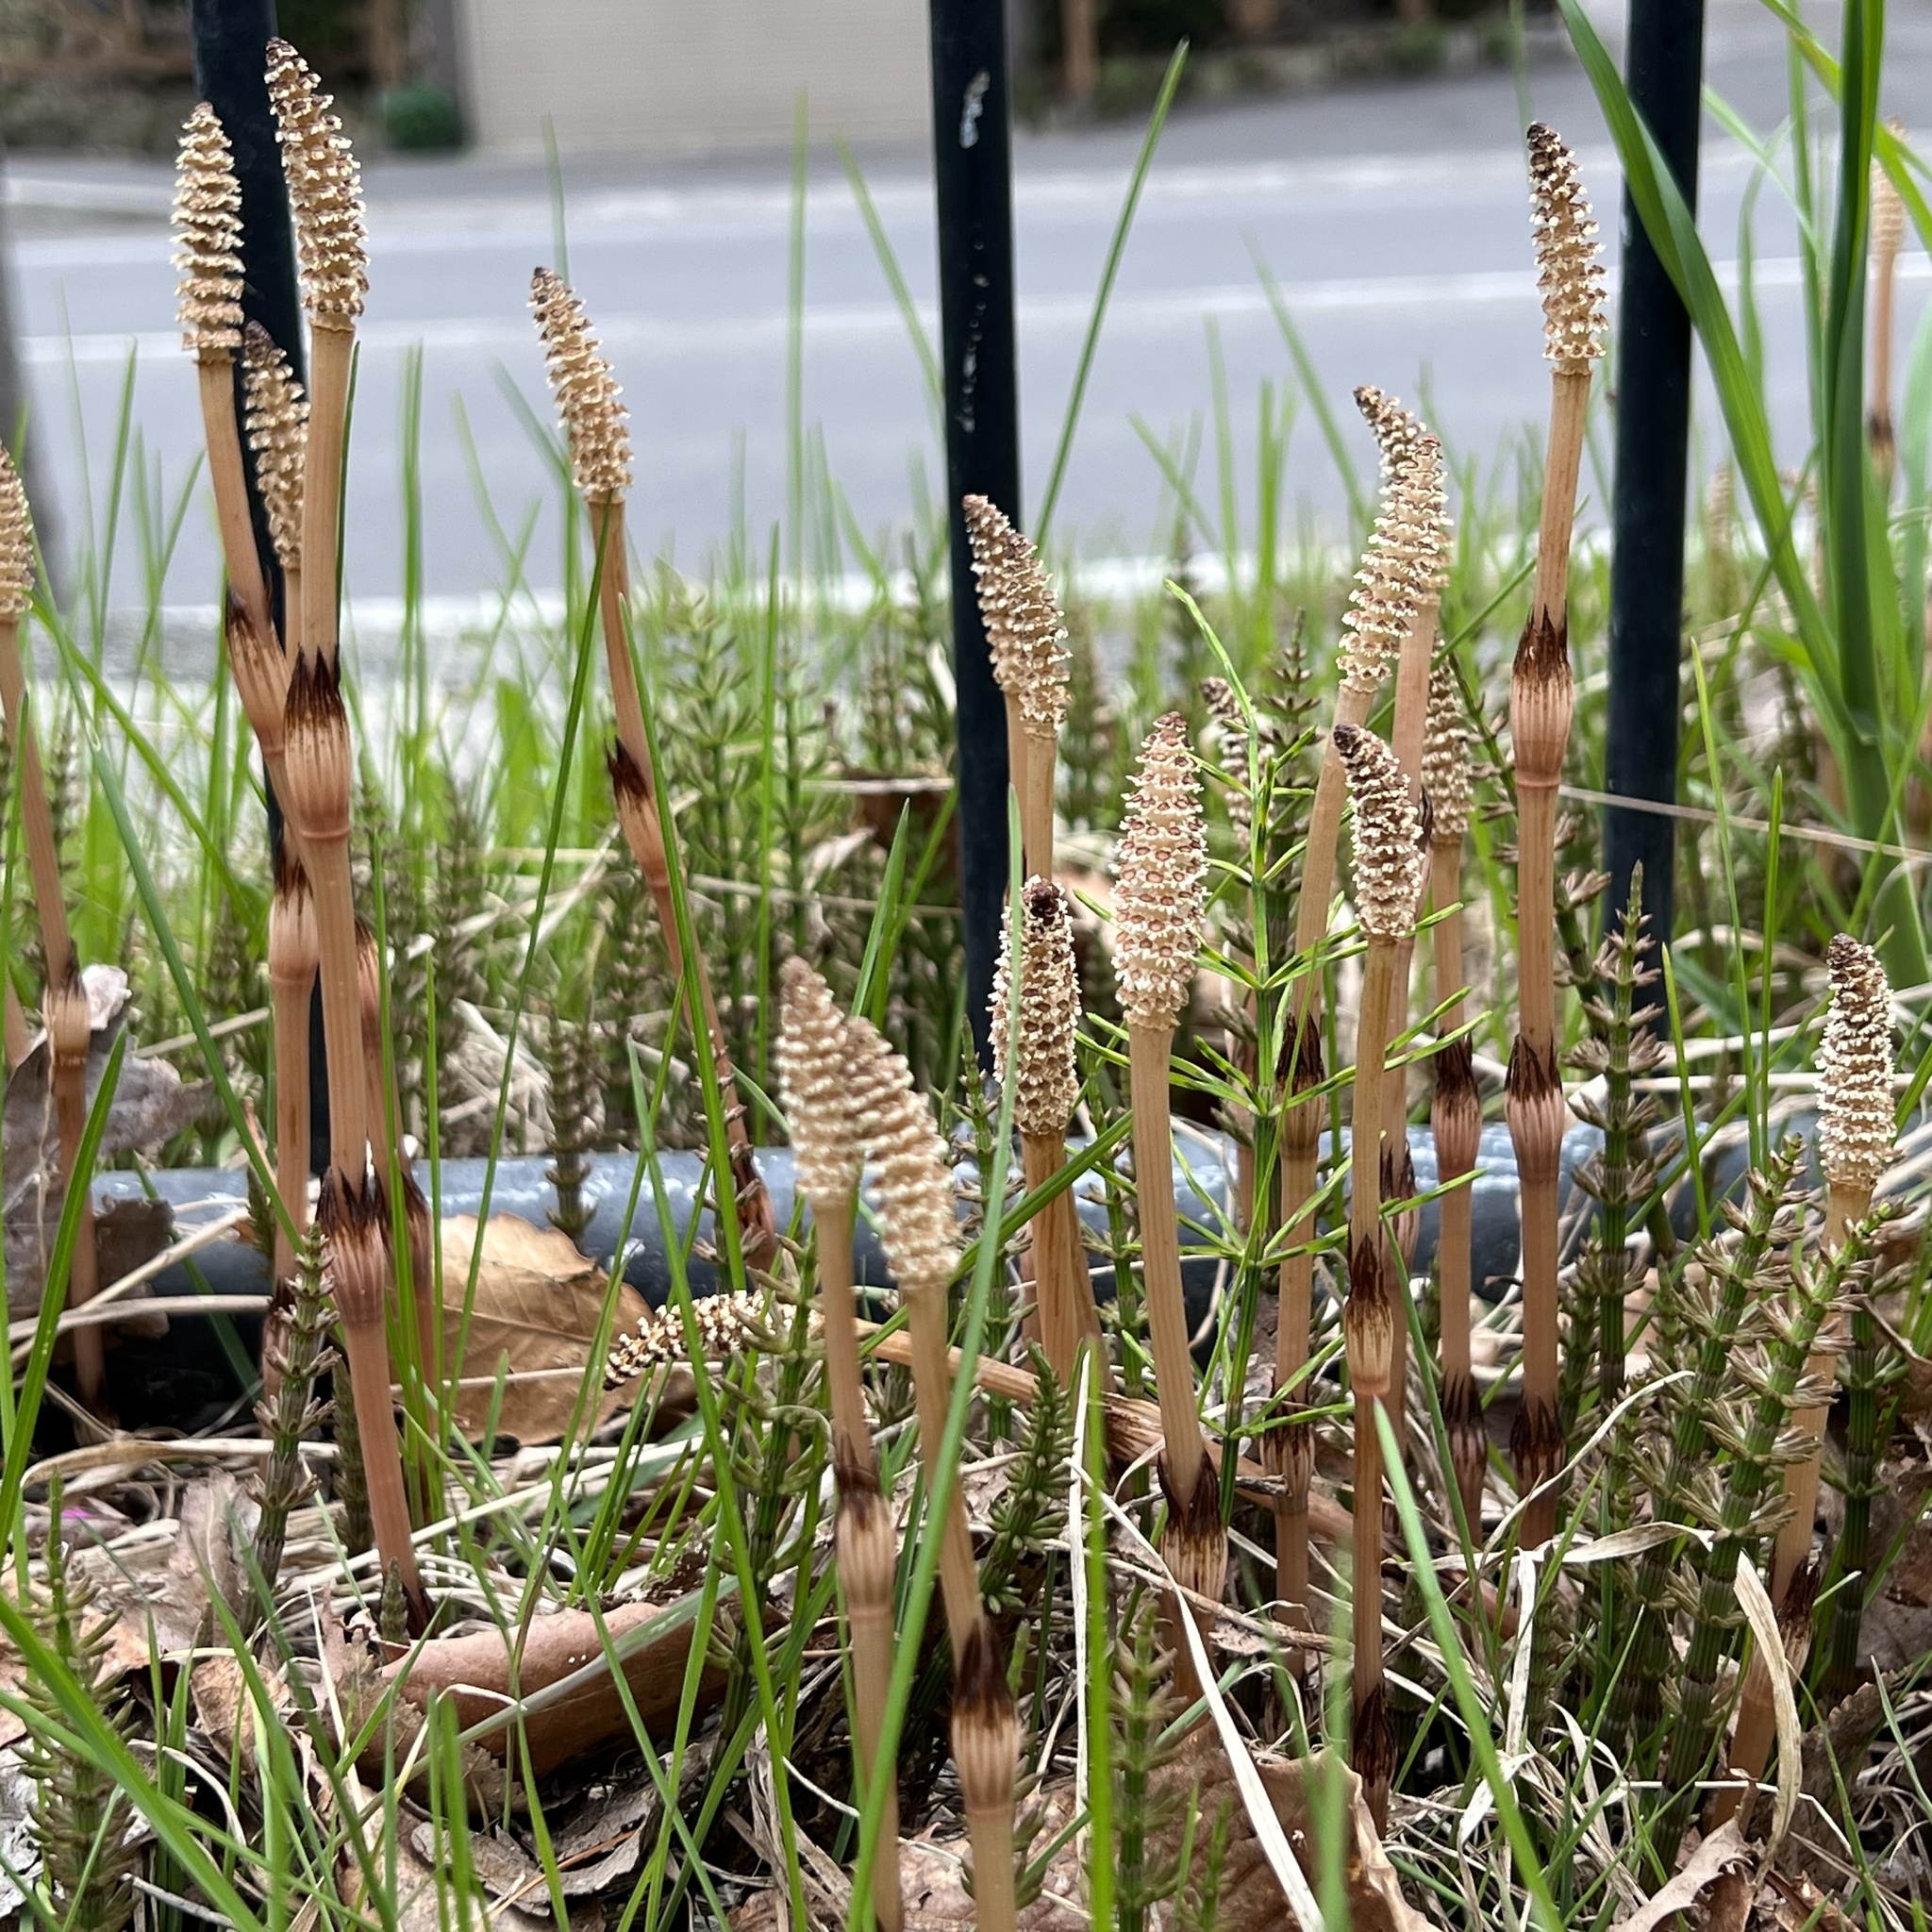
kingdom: Plantae
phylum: Tracheophyta
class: Polypodiopsida
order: Equisetales
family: Equisetaceae
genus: Equisetum
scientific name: Equisetum arvense
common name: Field horsetail
